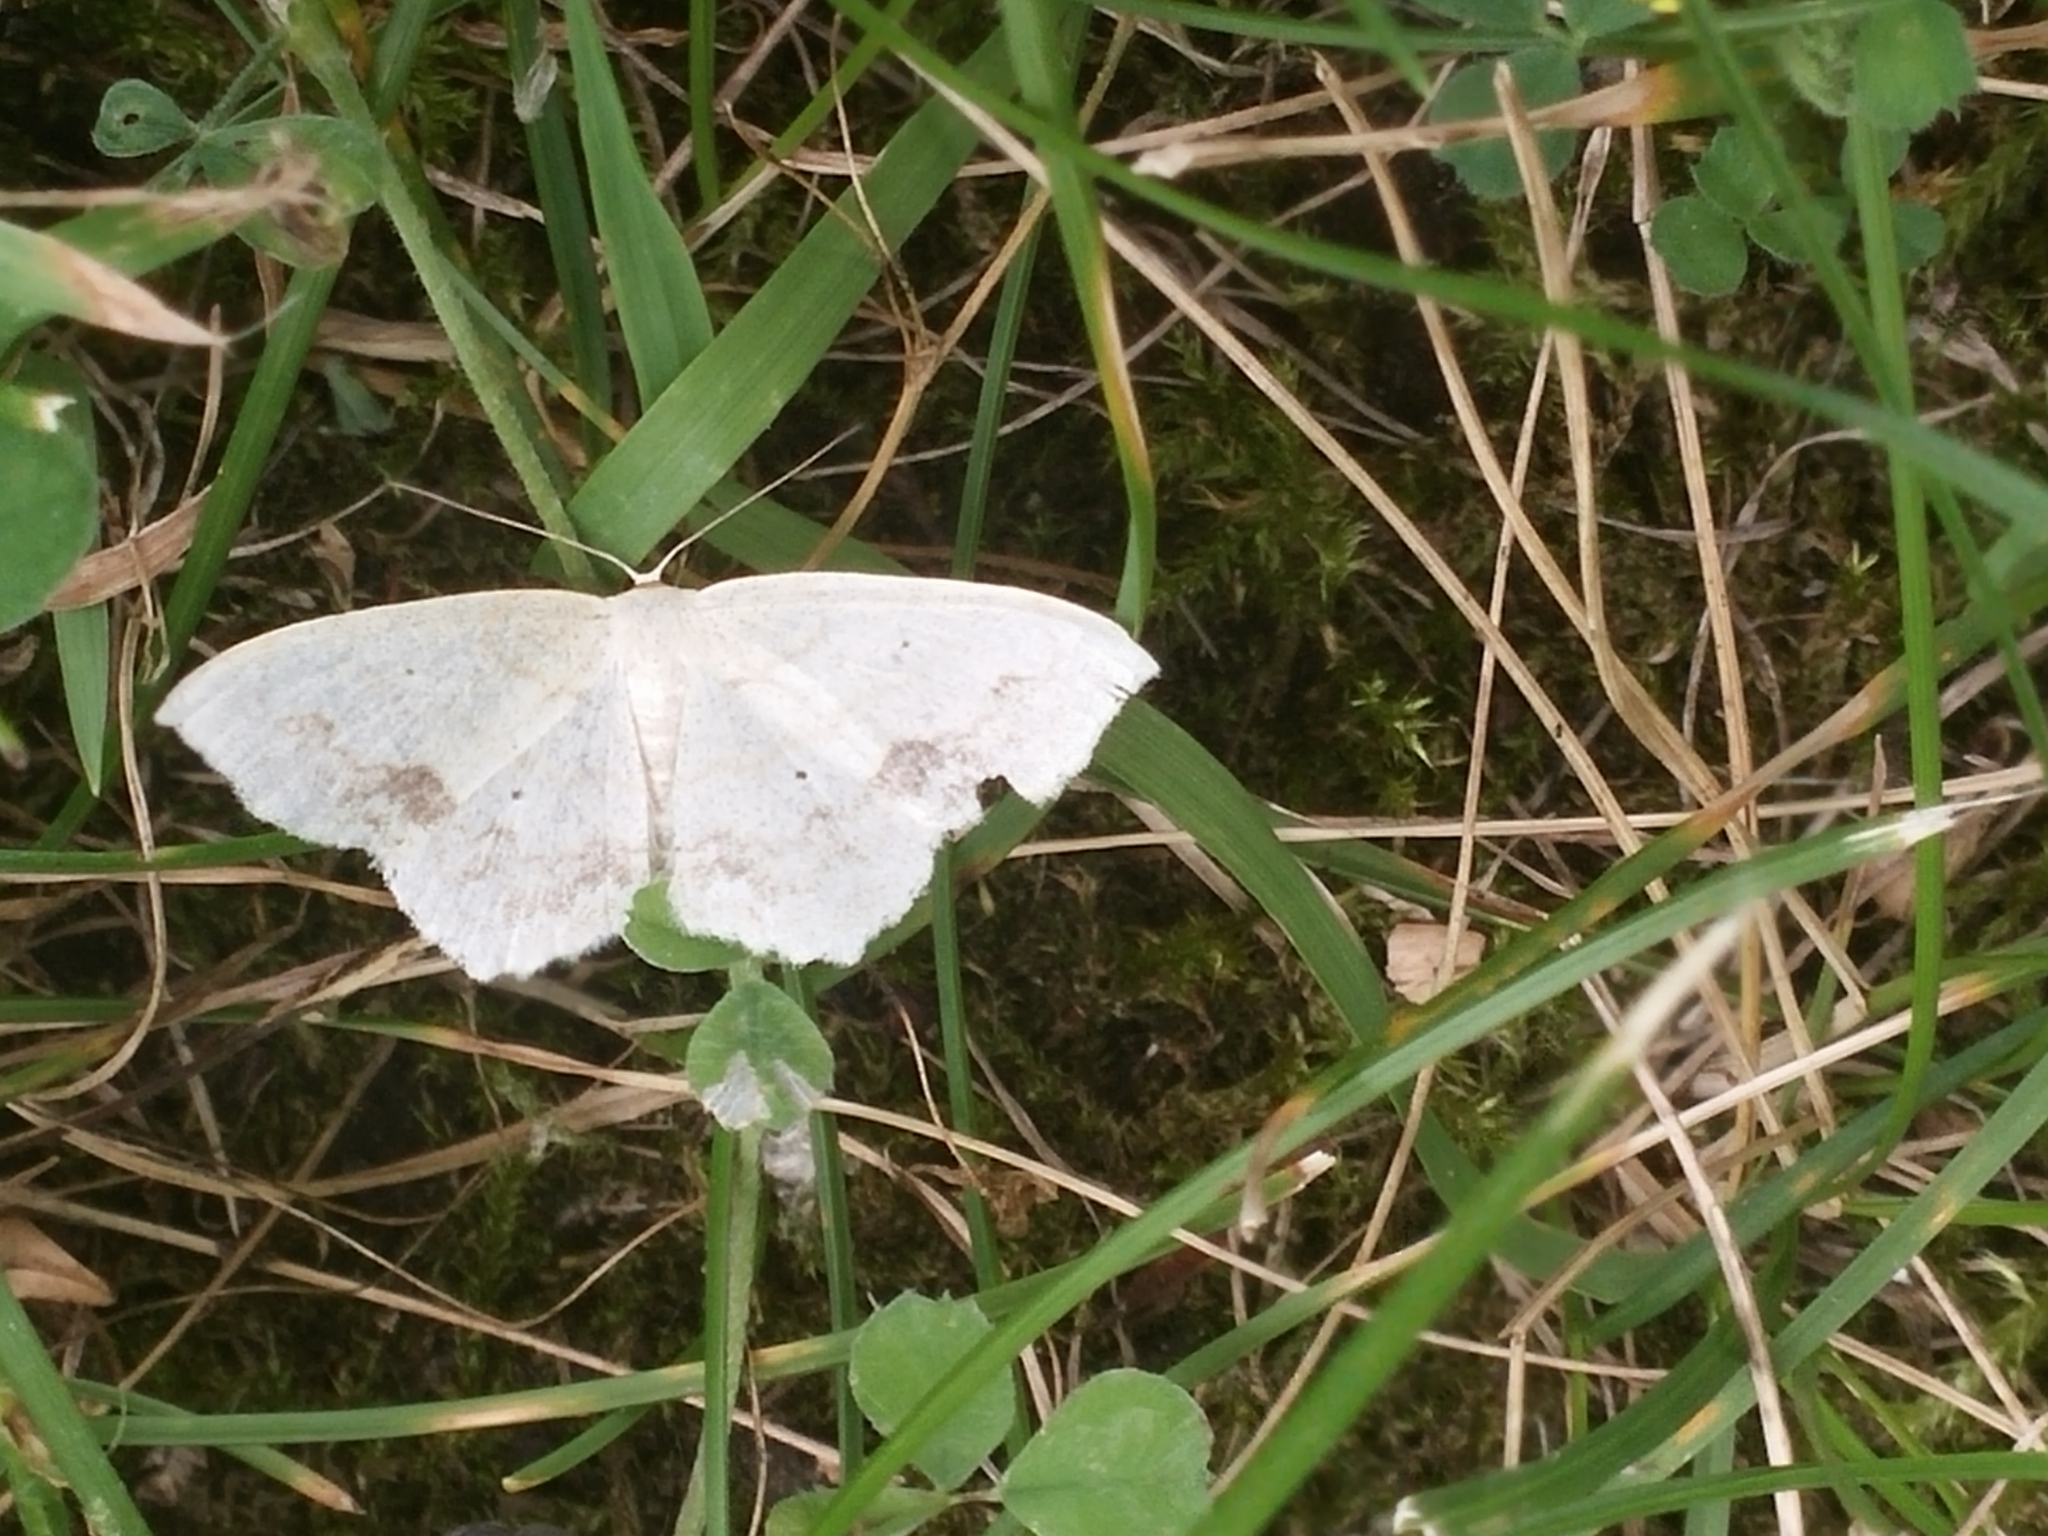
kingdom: Animalia
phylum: Arthropoda
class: Insecta
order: Lepidoptera
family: Geometridae
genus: Scopula
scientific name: Scopula limboundata
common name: Large lace border
